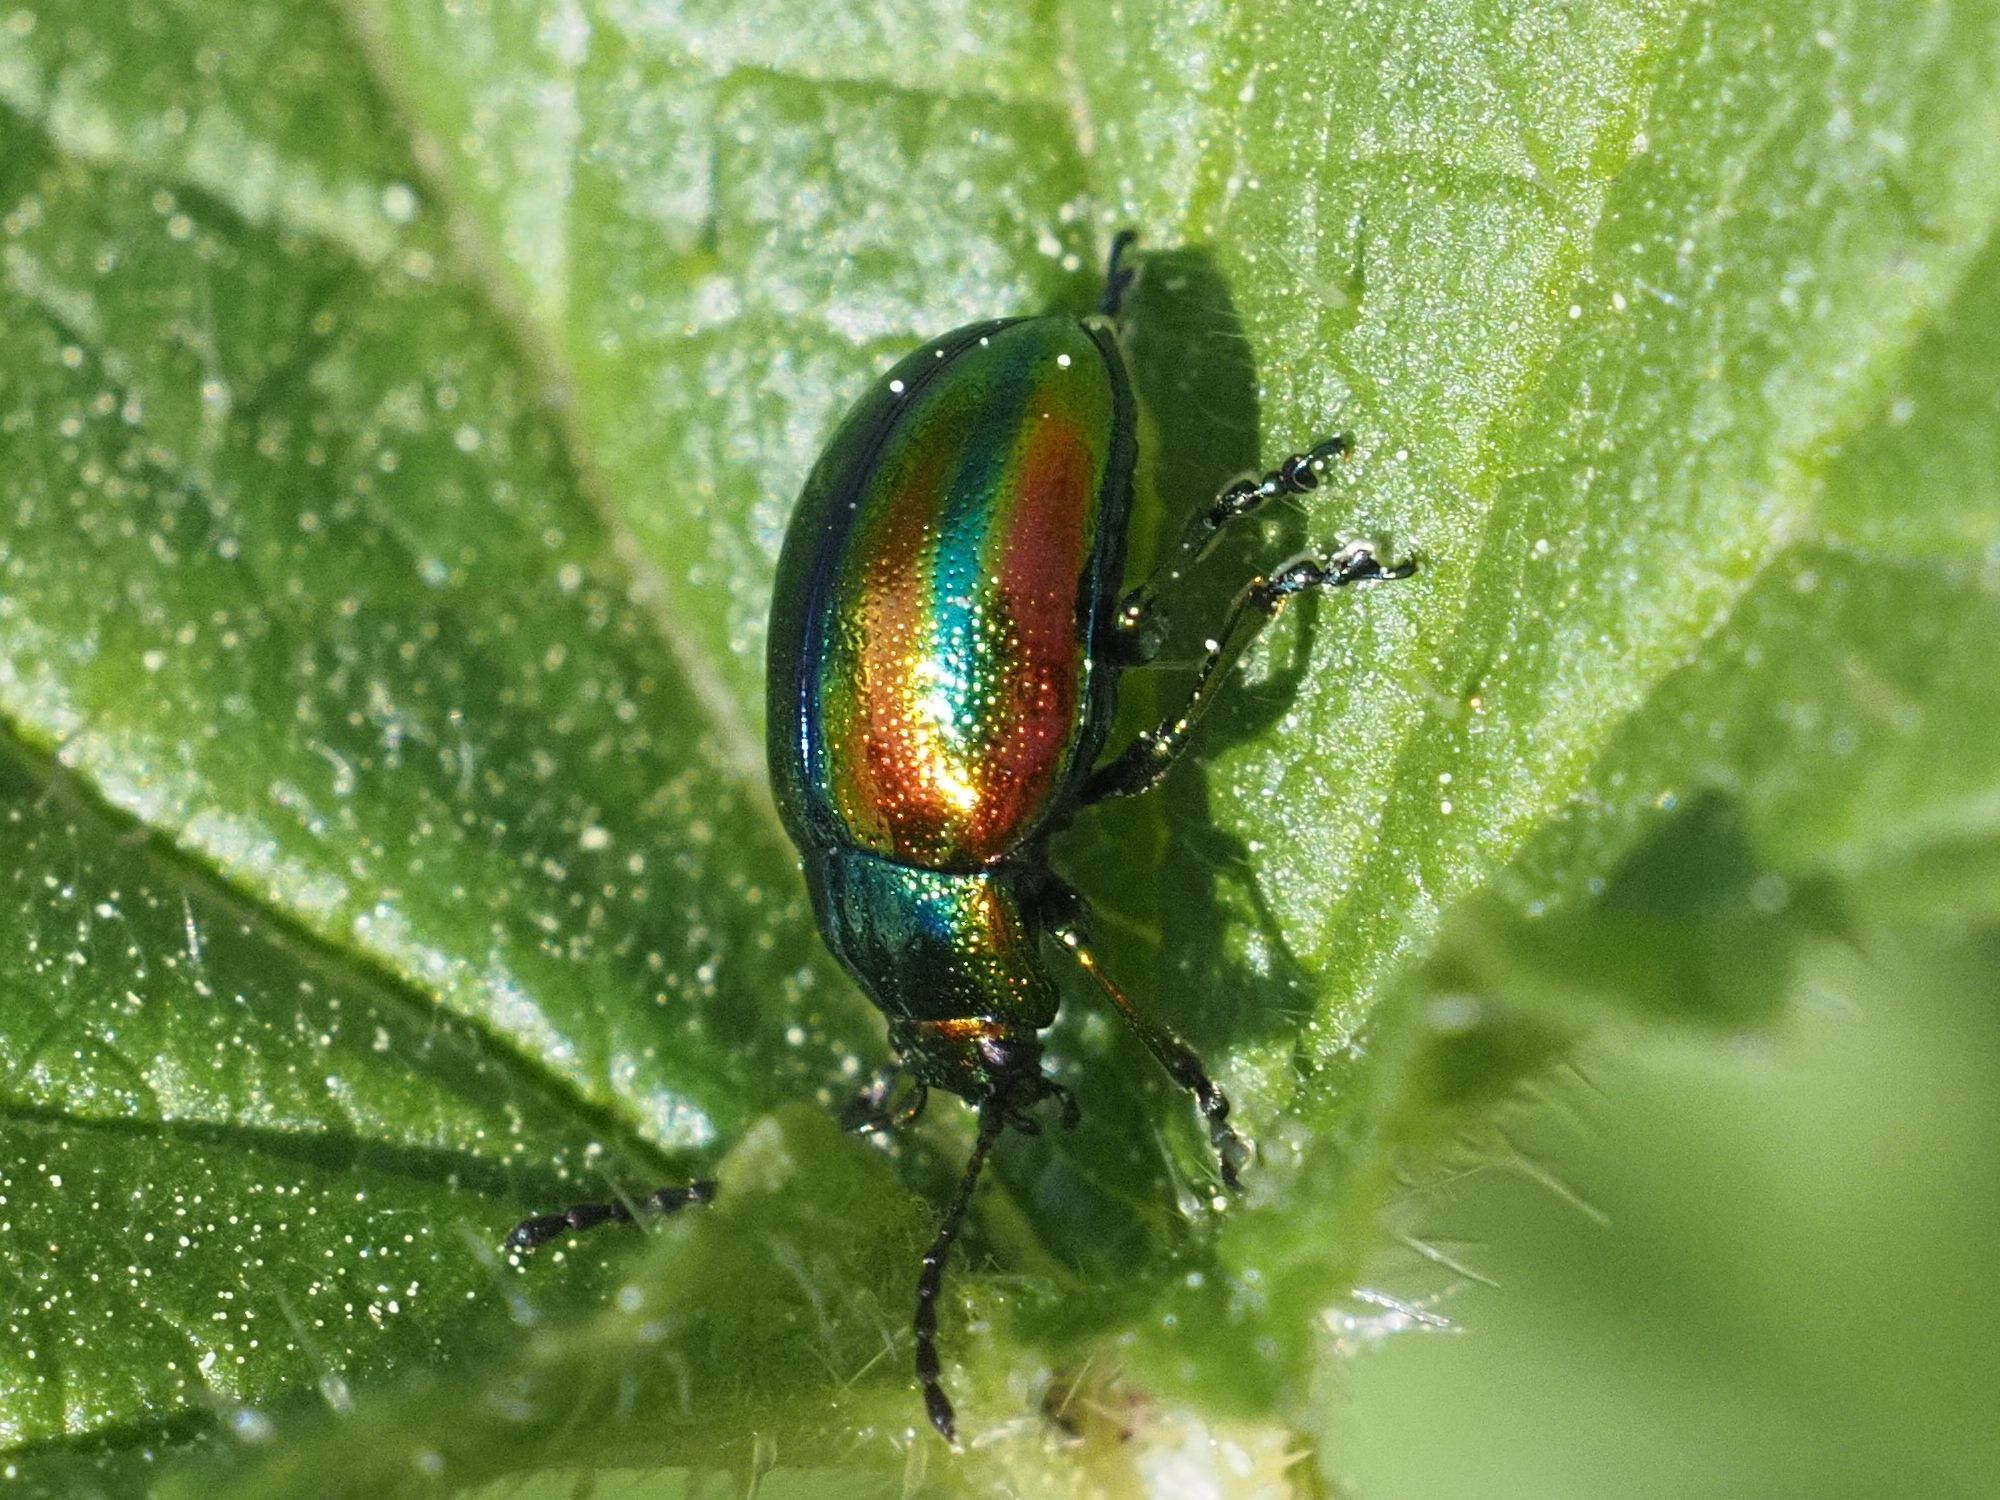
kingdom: Animalia
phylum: Arthropoda
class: Insecta
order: Coleoptera
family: Chrysomelidae
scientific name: Chrysomelidae
